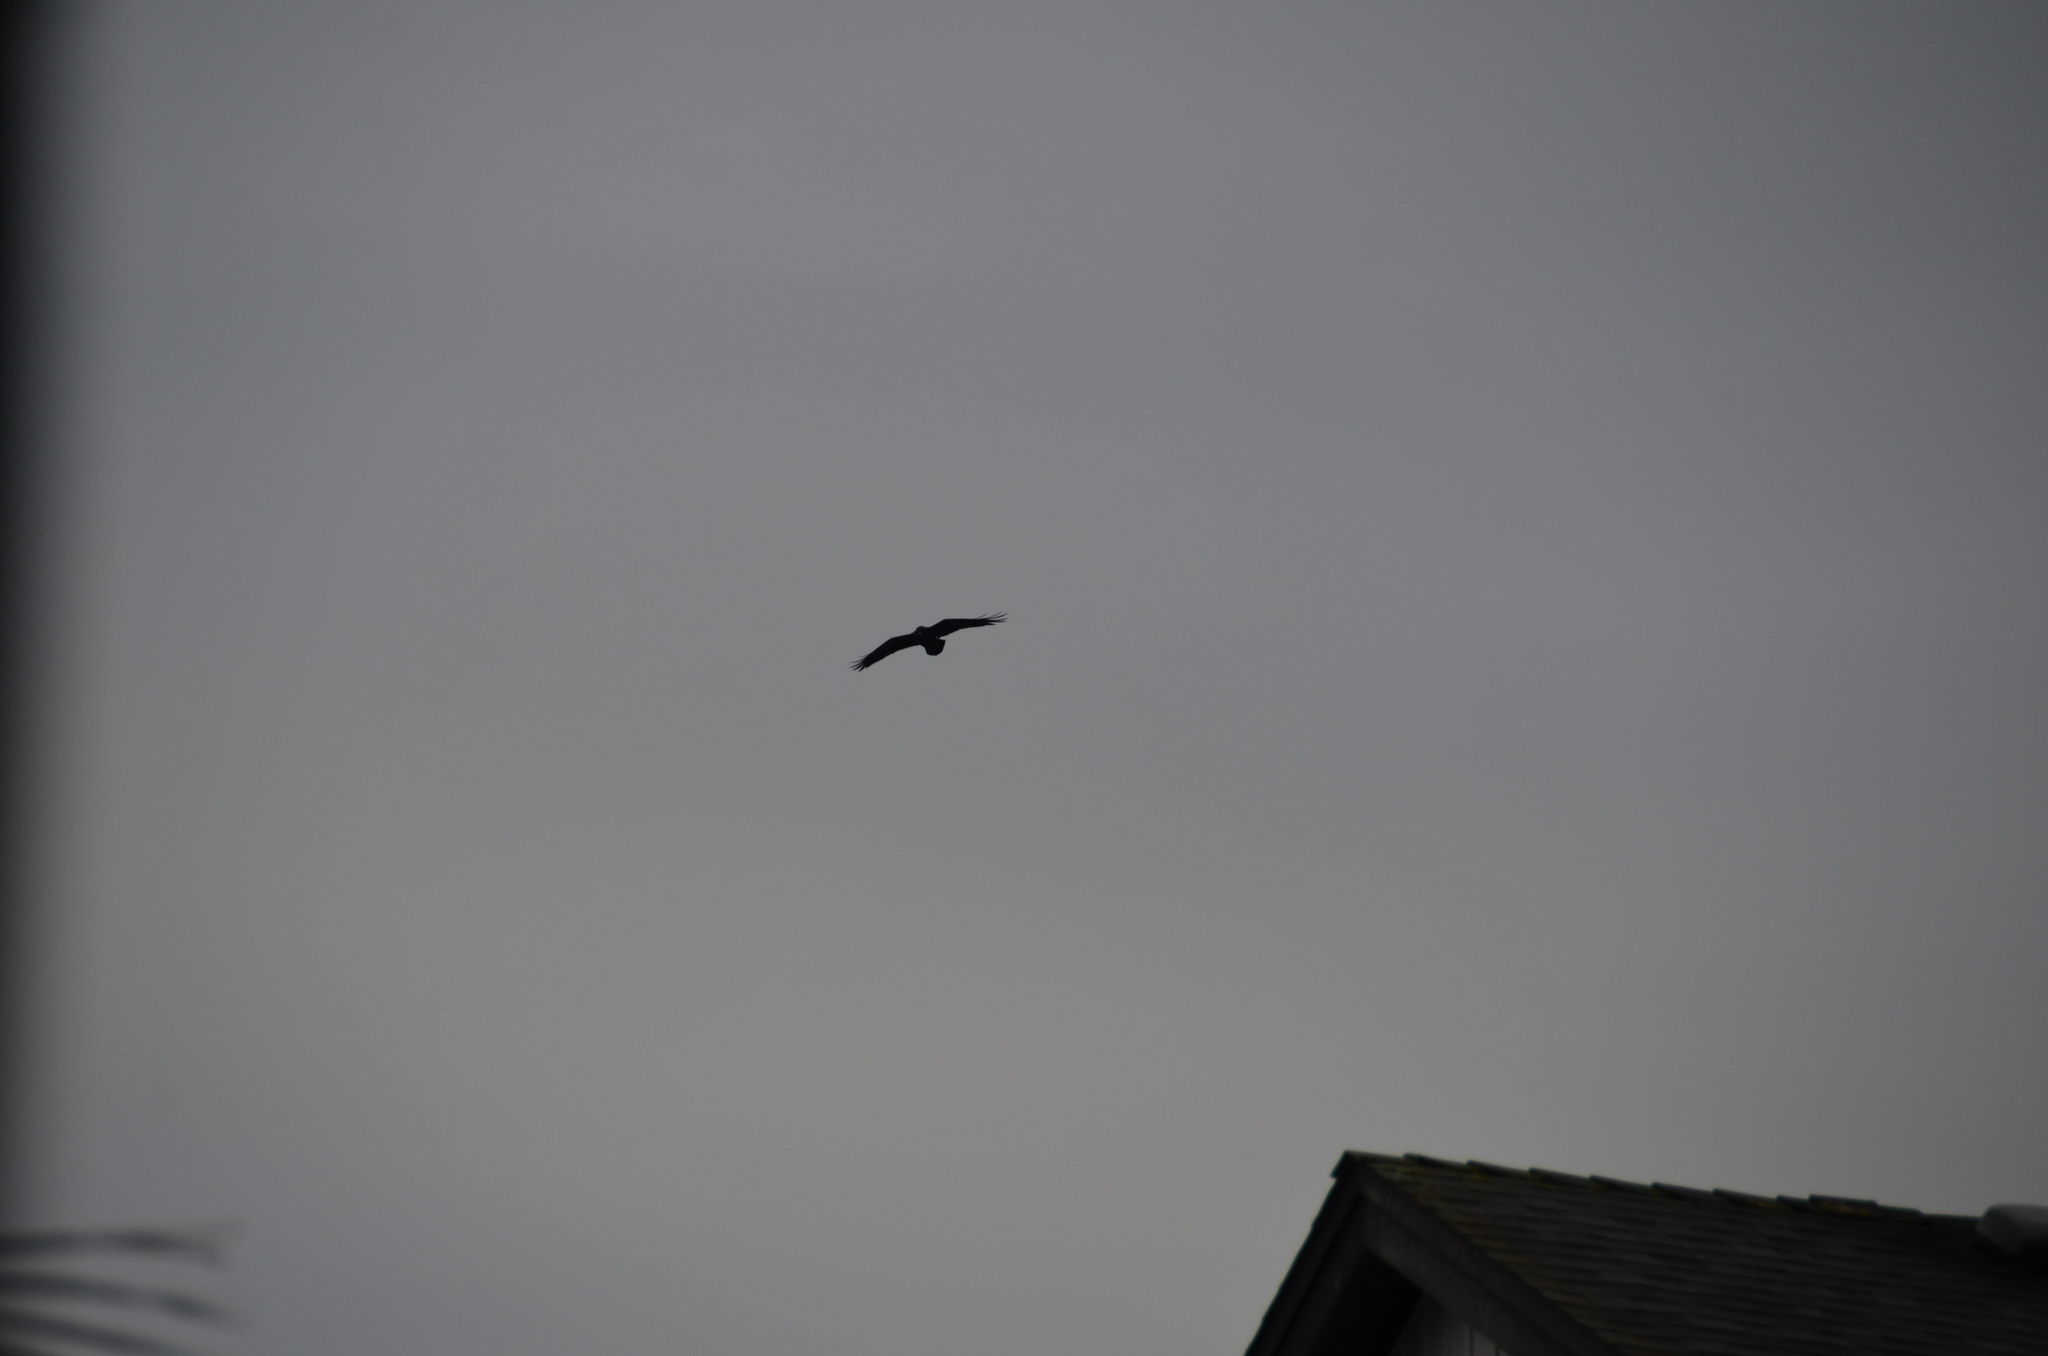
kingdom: Animalia
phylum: Chordata
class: Aves
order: Passeriformes
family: Corvidae
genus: Corvus
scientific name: Corvus corax
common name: Common raven
